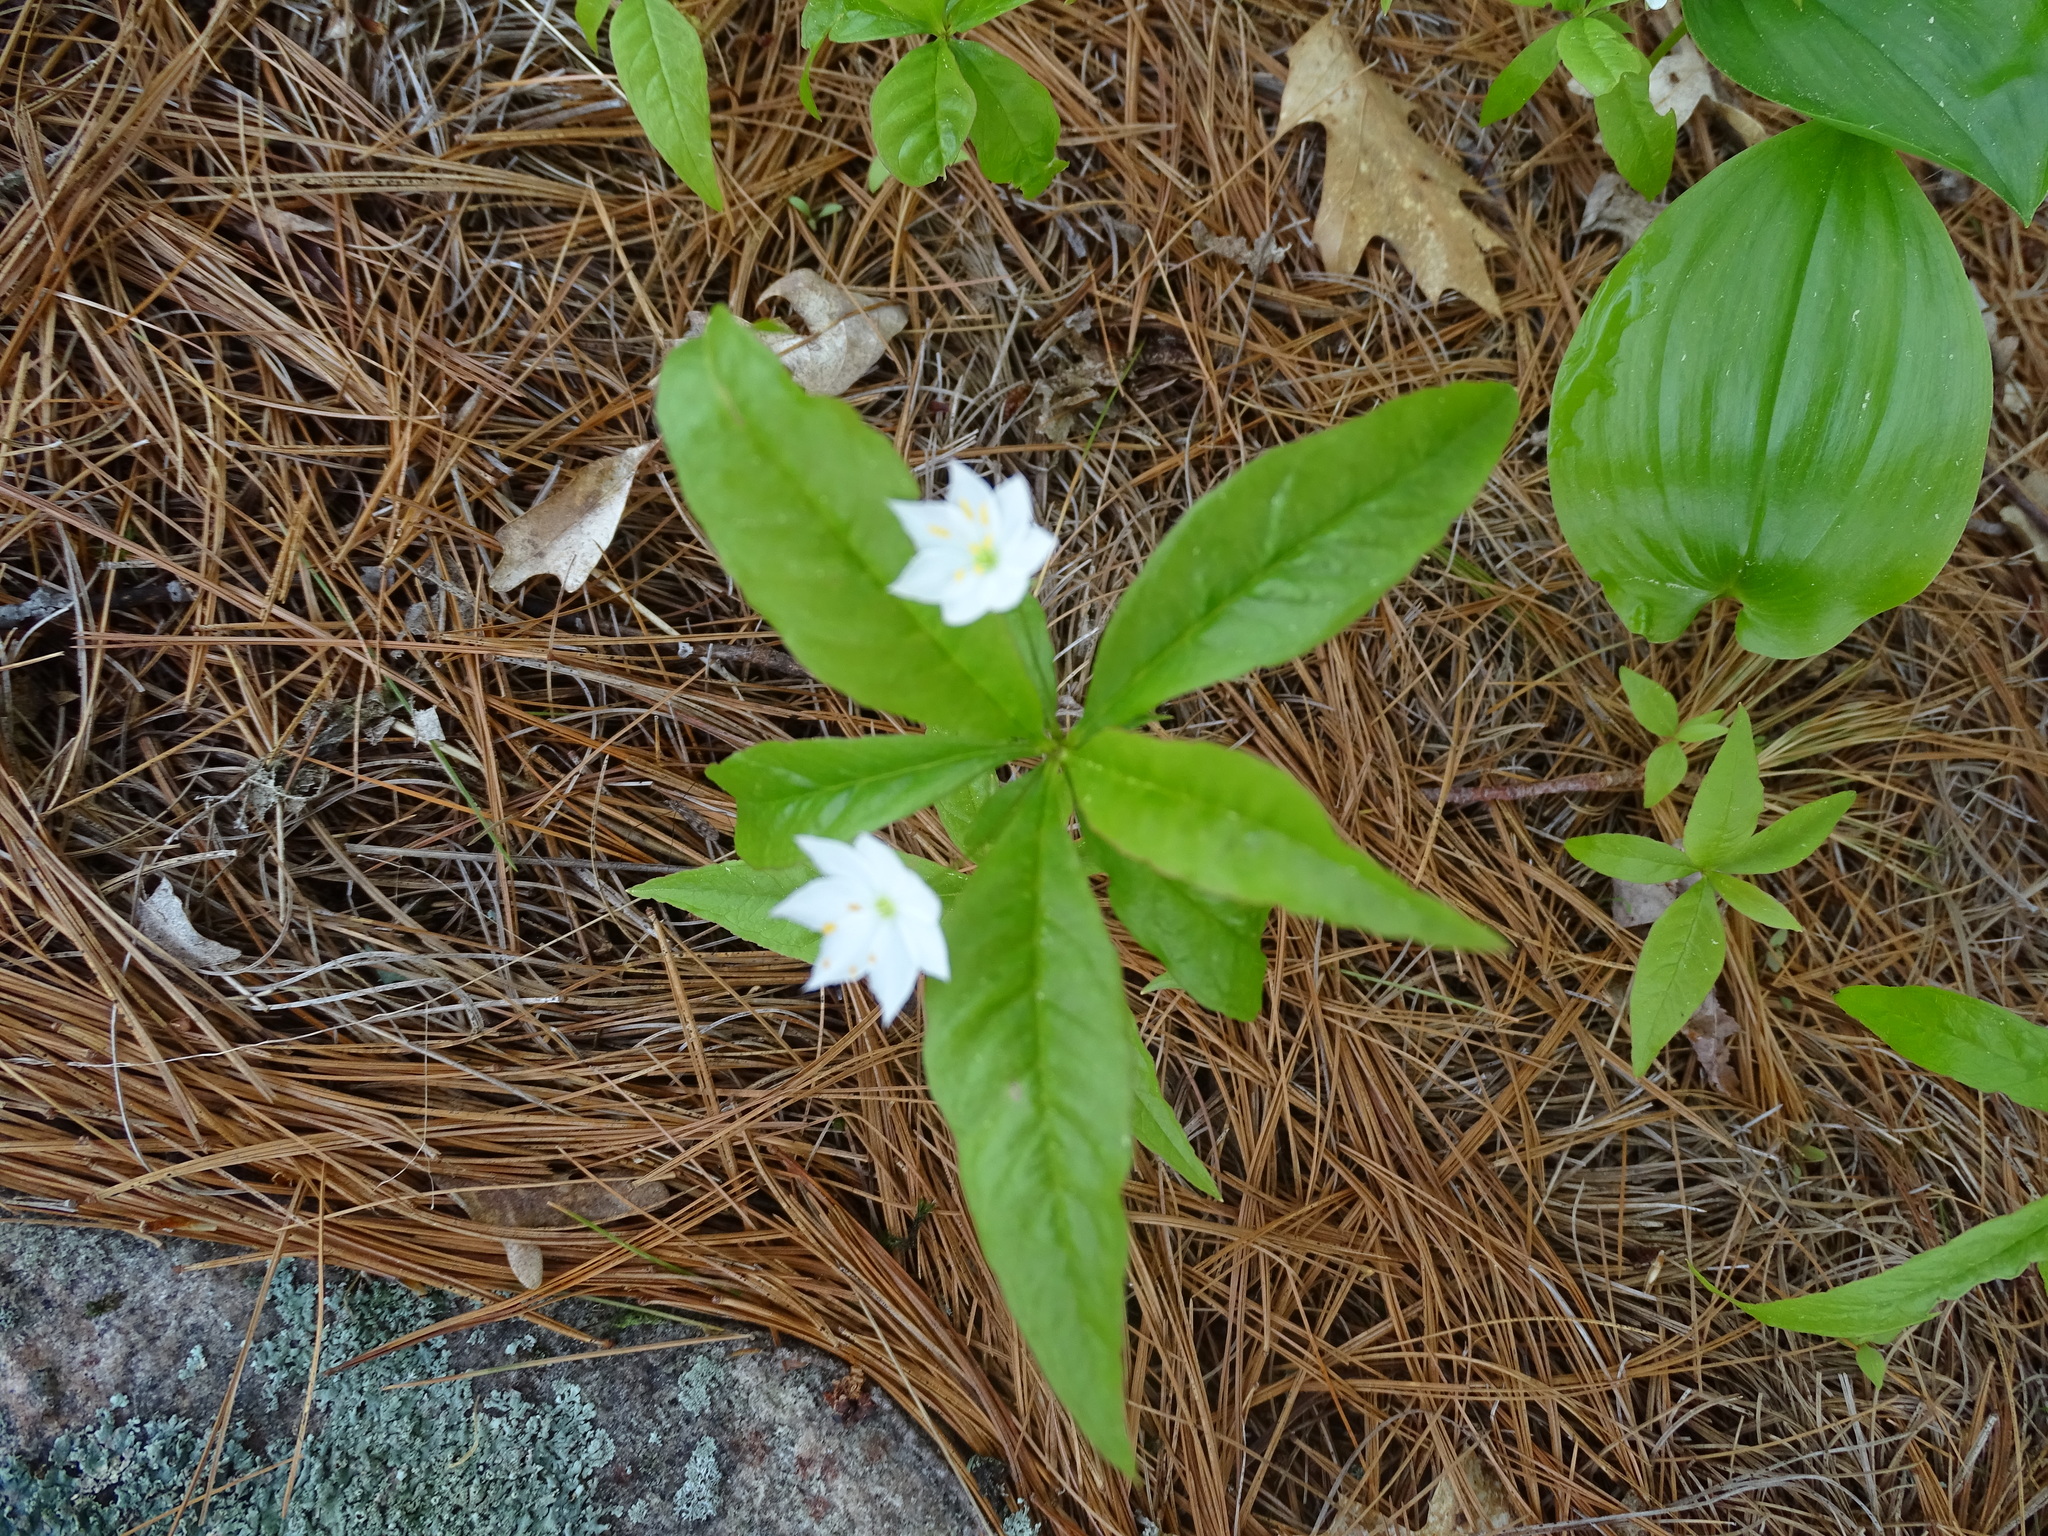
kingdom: Plantae
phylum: Tracheophyta
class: Magnoliopsida
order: Ericales
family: Primulaceae
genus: Lysimachia
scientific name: Lysimachia borealis
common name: American starflower
